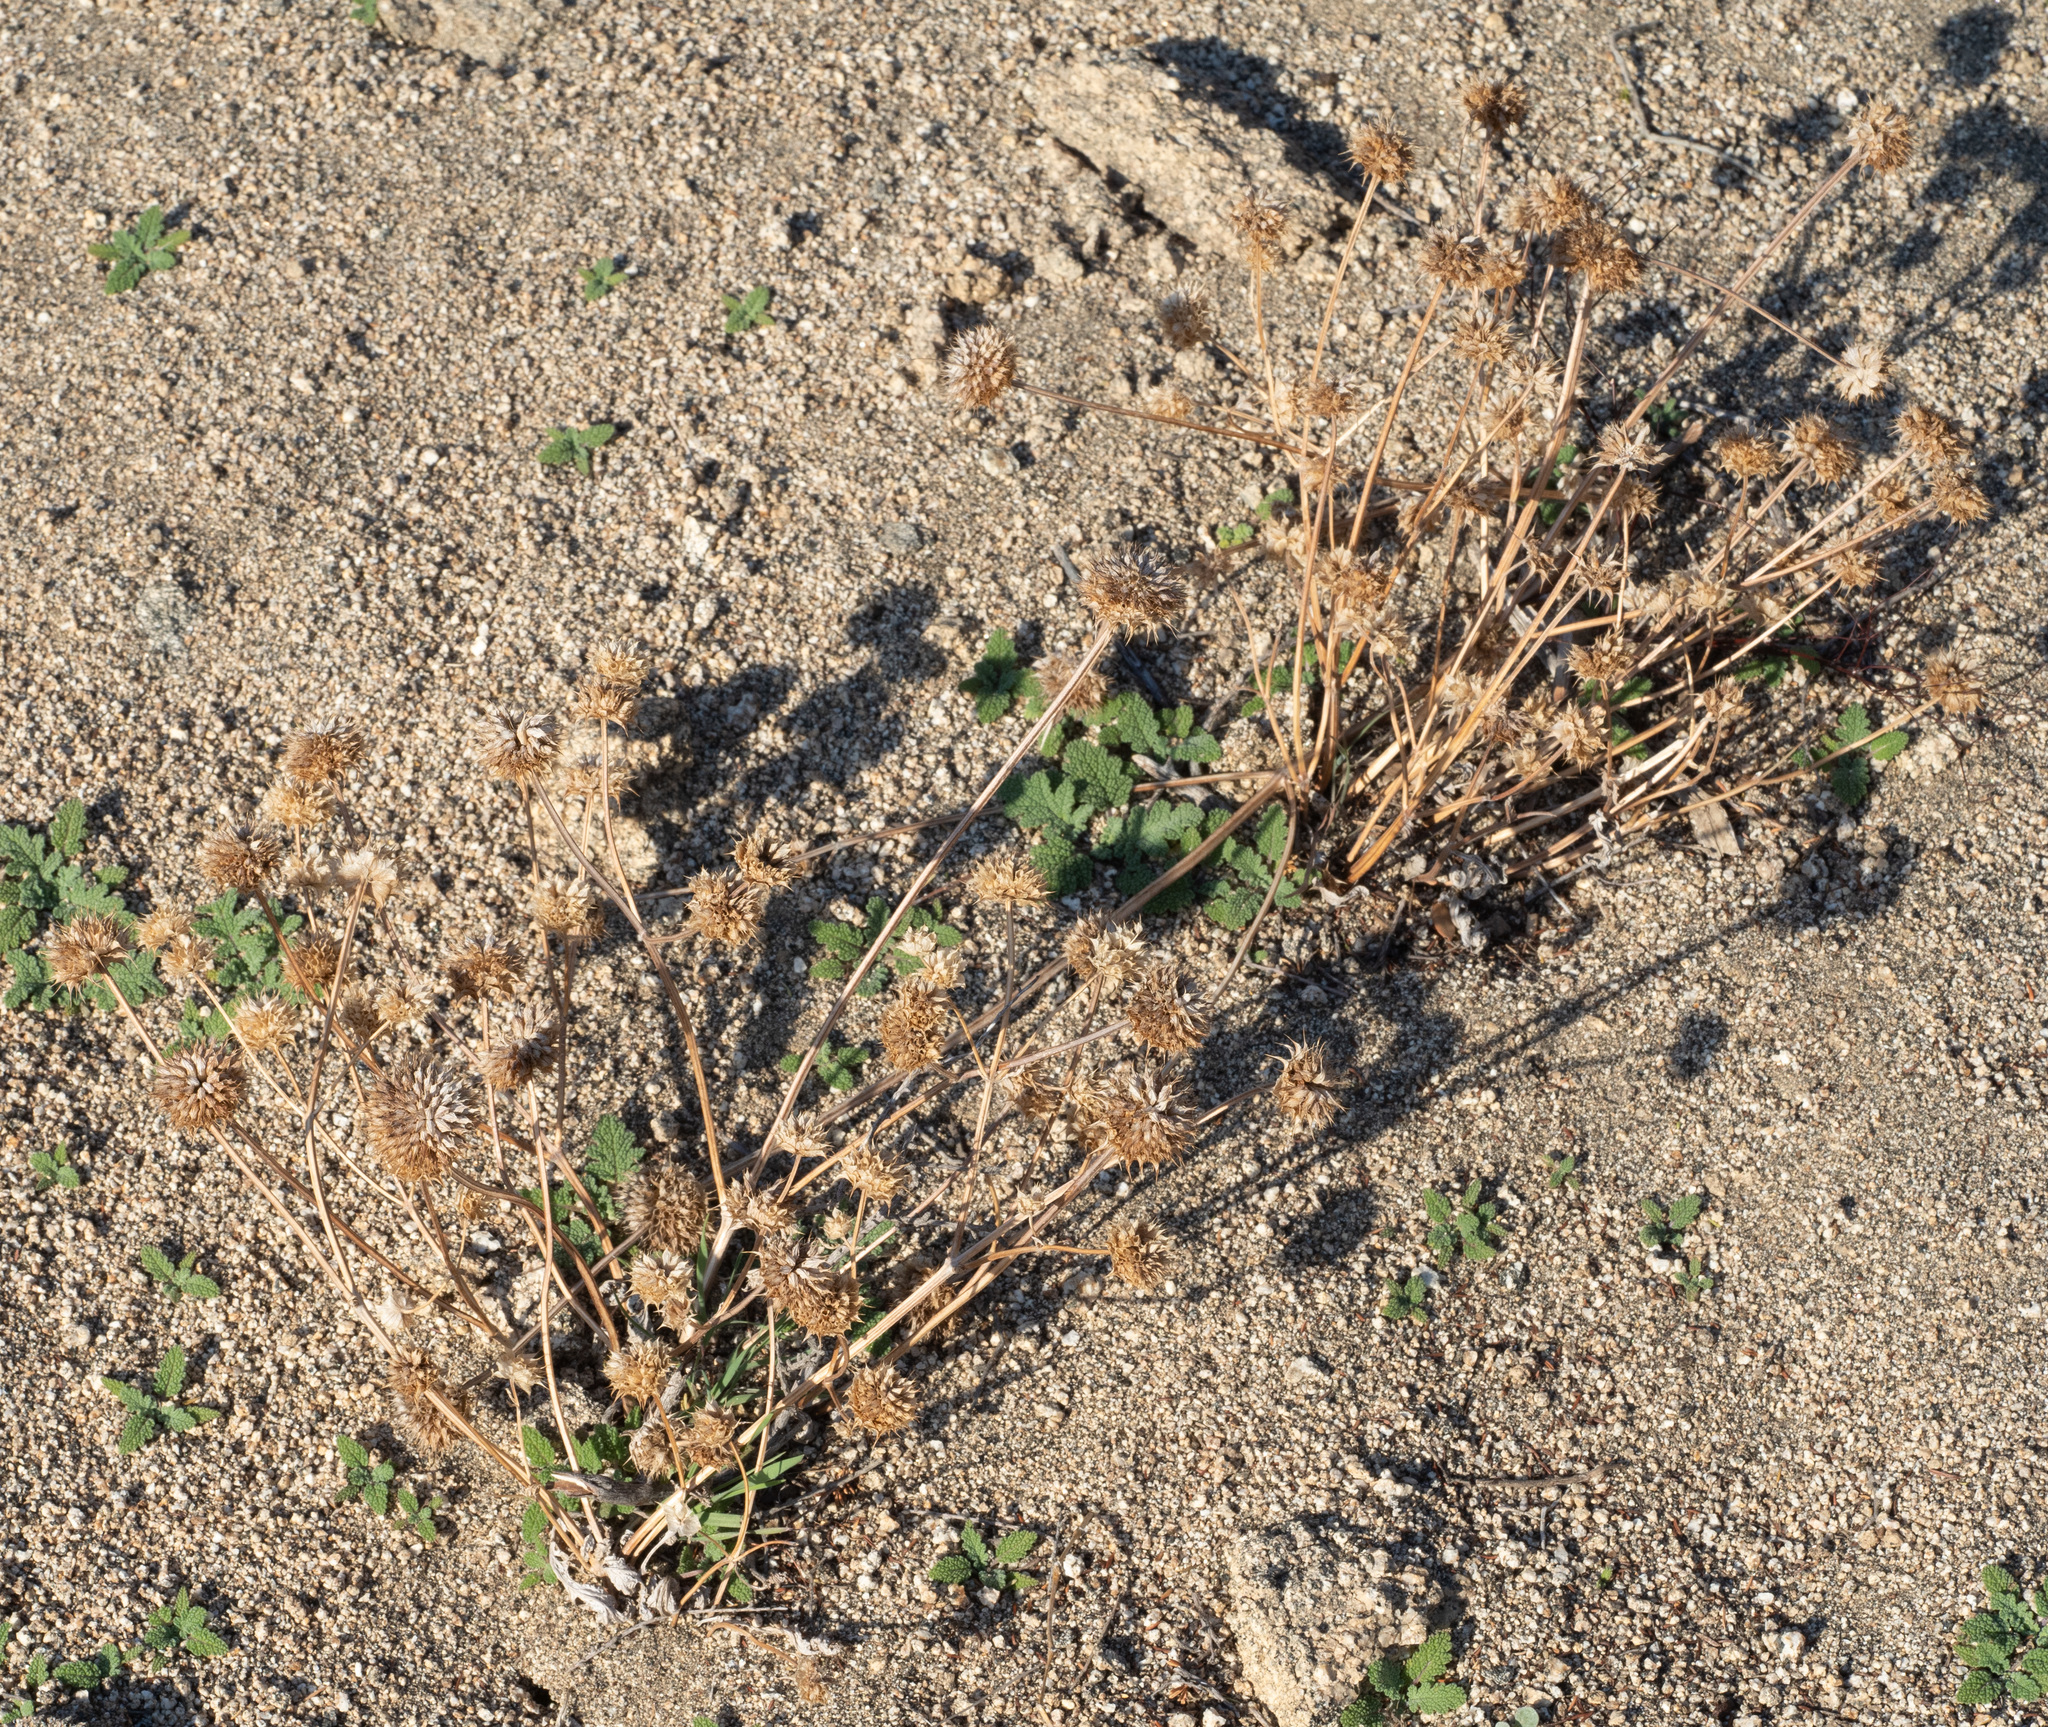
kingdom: Plantae
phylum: Tracheophyta
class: Magnoliopsida
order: Lamiales
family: Lamiaceae
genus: Salvia
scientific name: Salvia columbariae
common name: Chia
